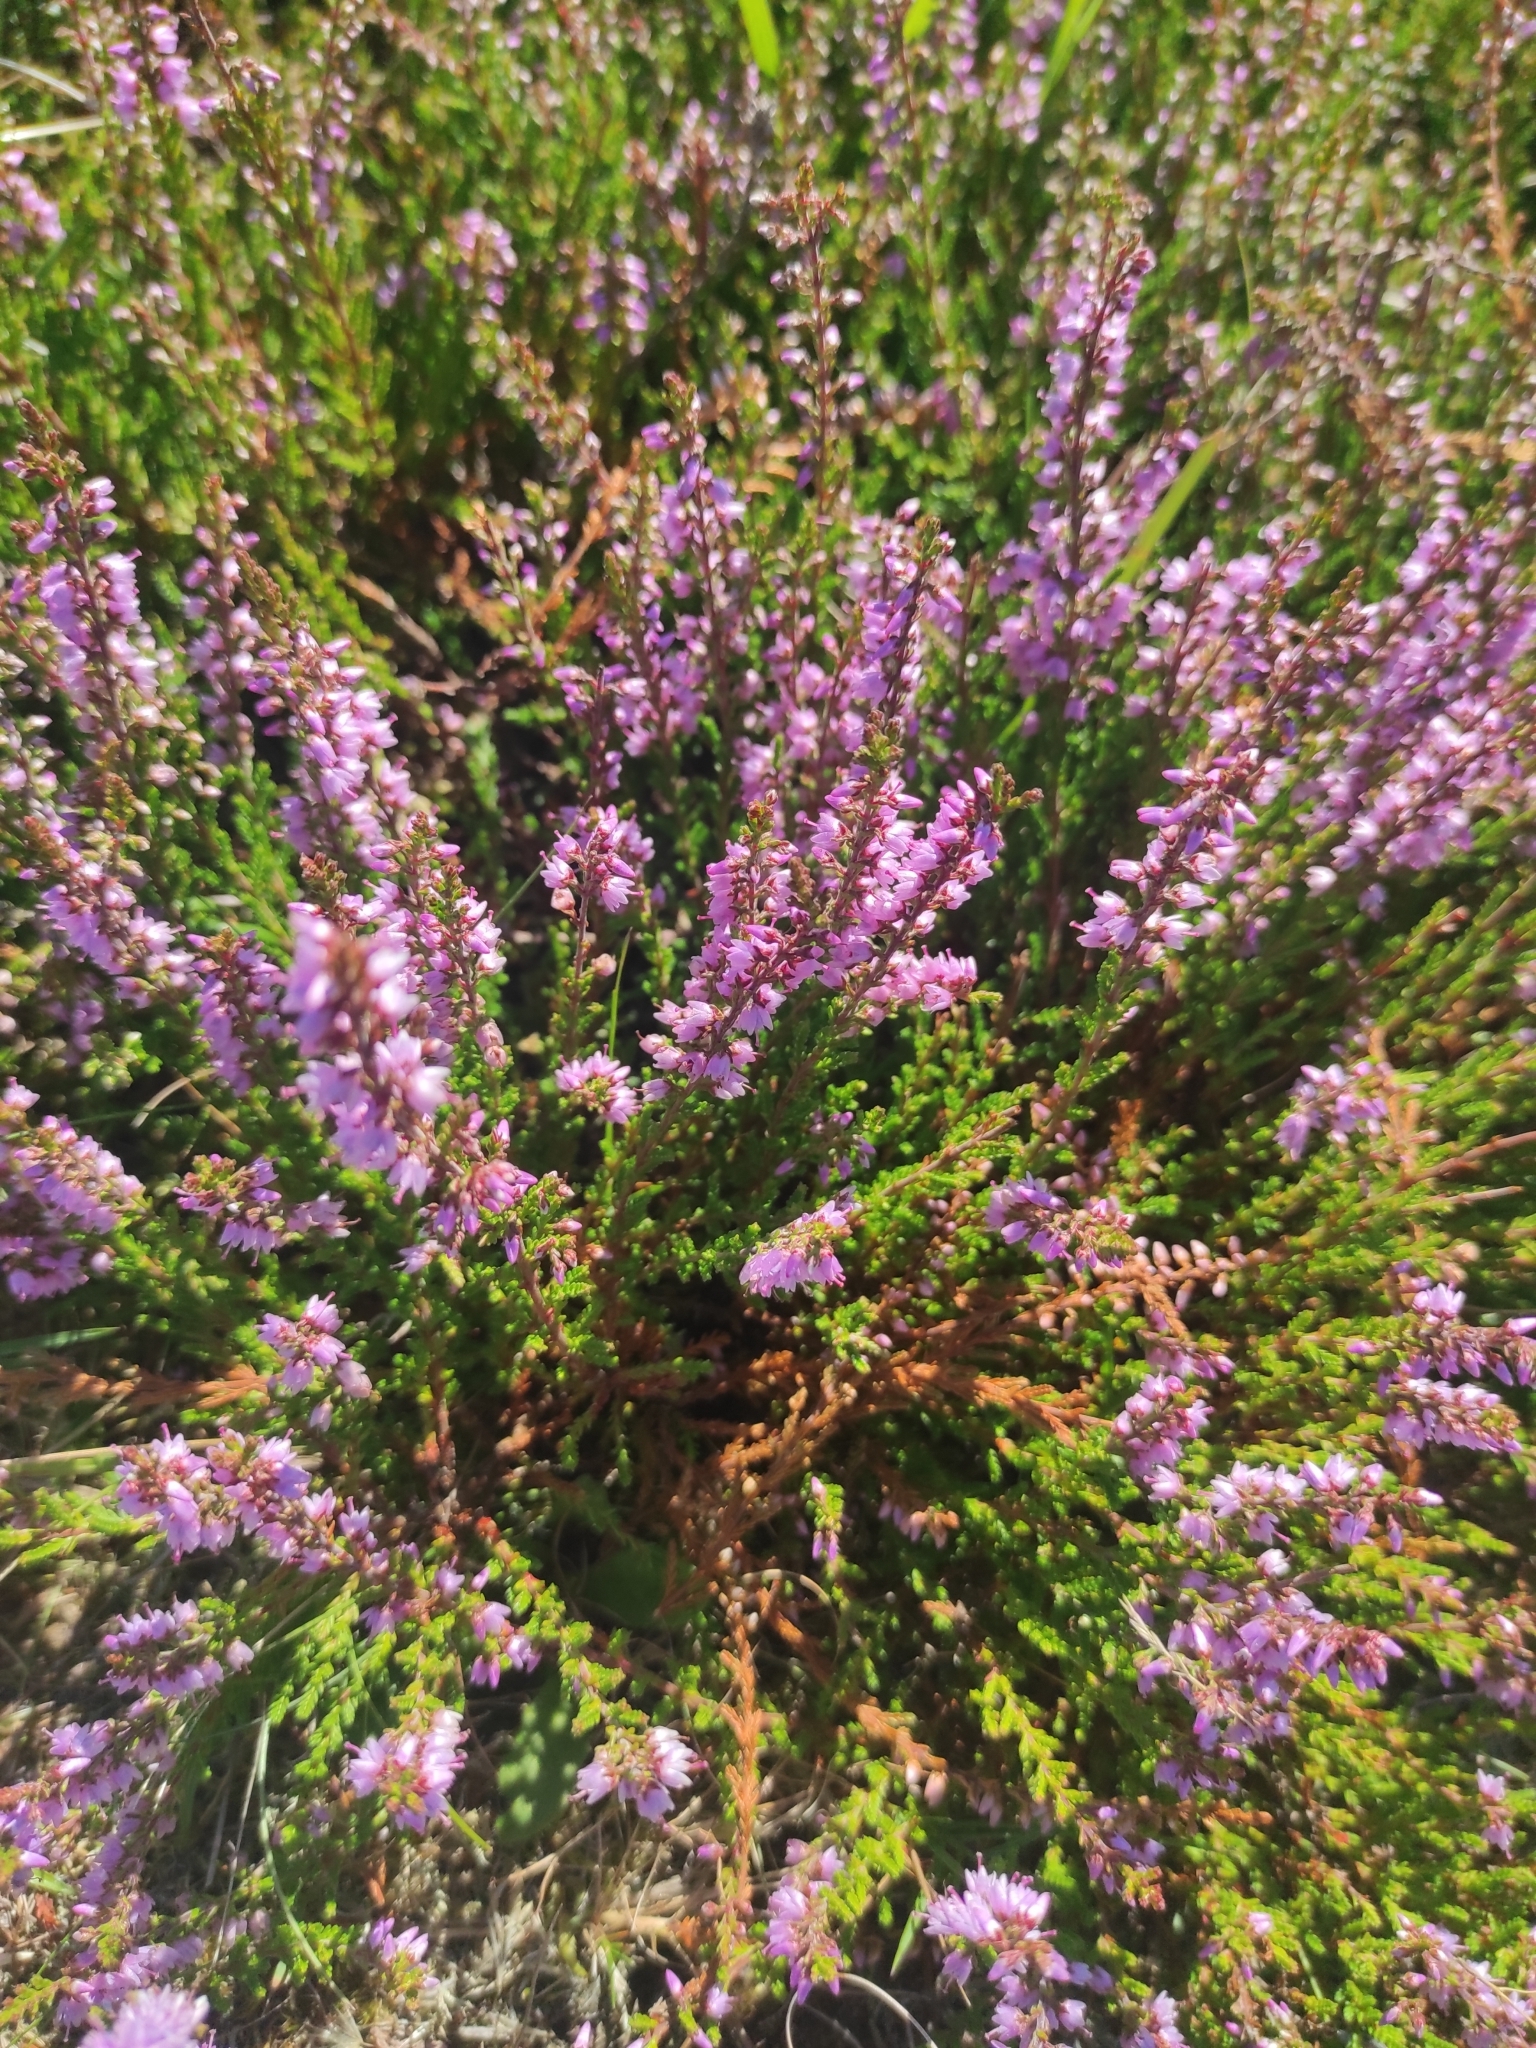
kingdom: Plantae
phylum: Tracheophyta
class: Magnoliopsida
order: Ericales
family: Ericaceae
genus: Calluna
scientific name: Calluna vulgaris
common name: Heather
